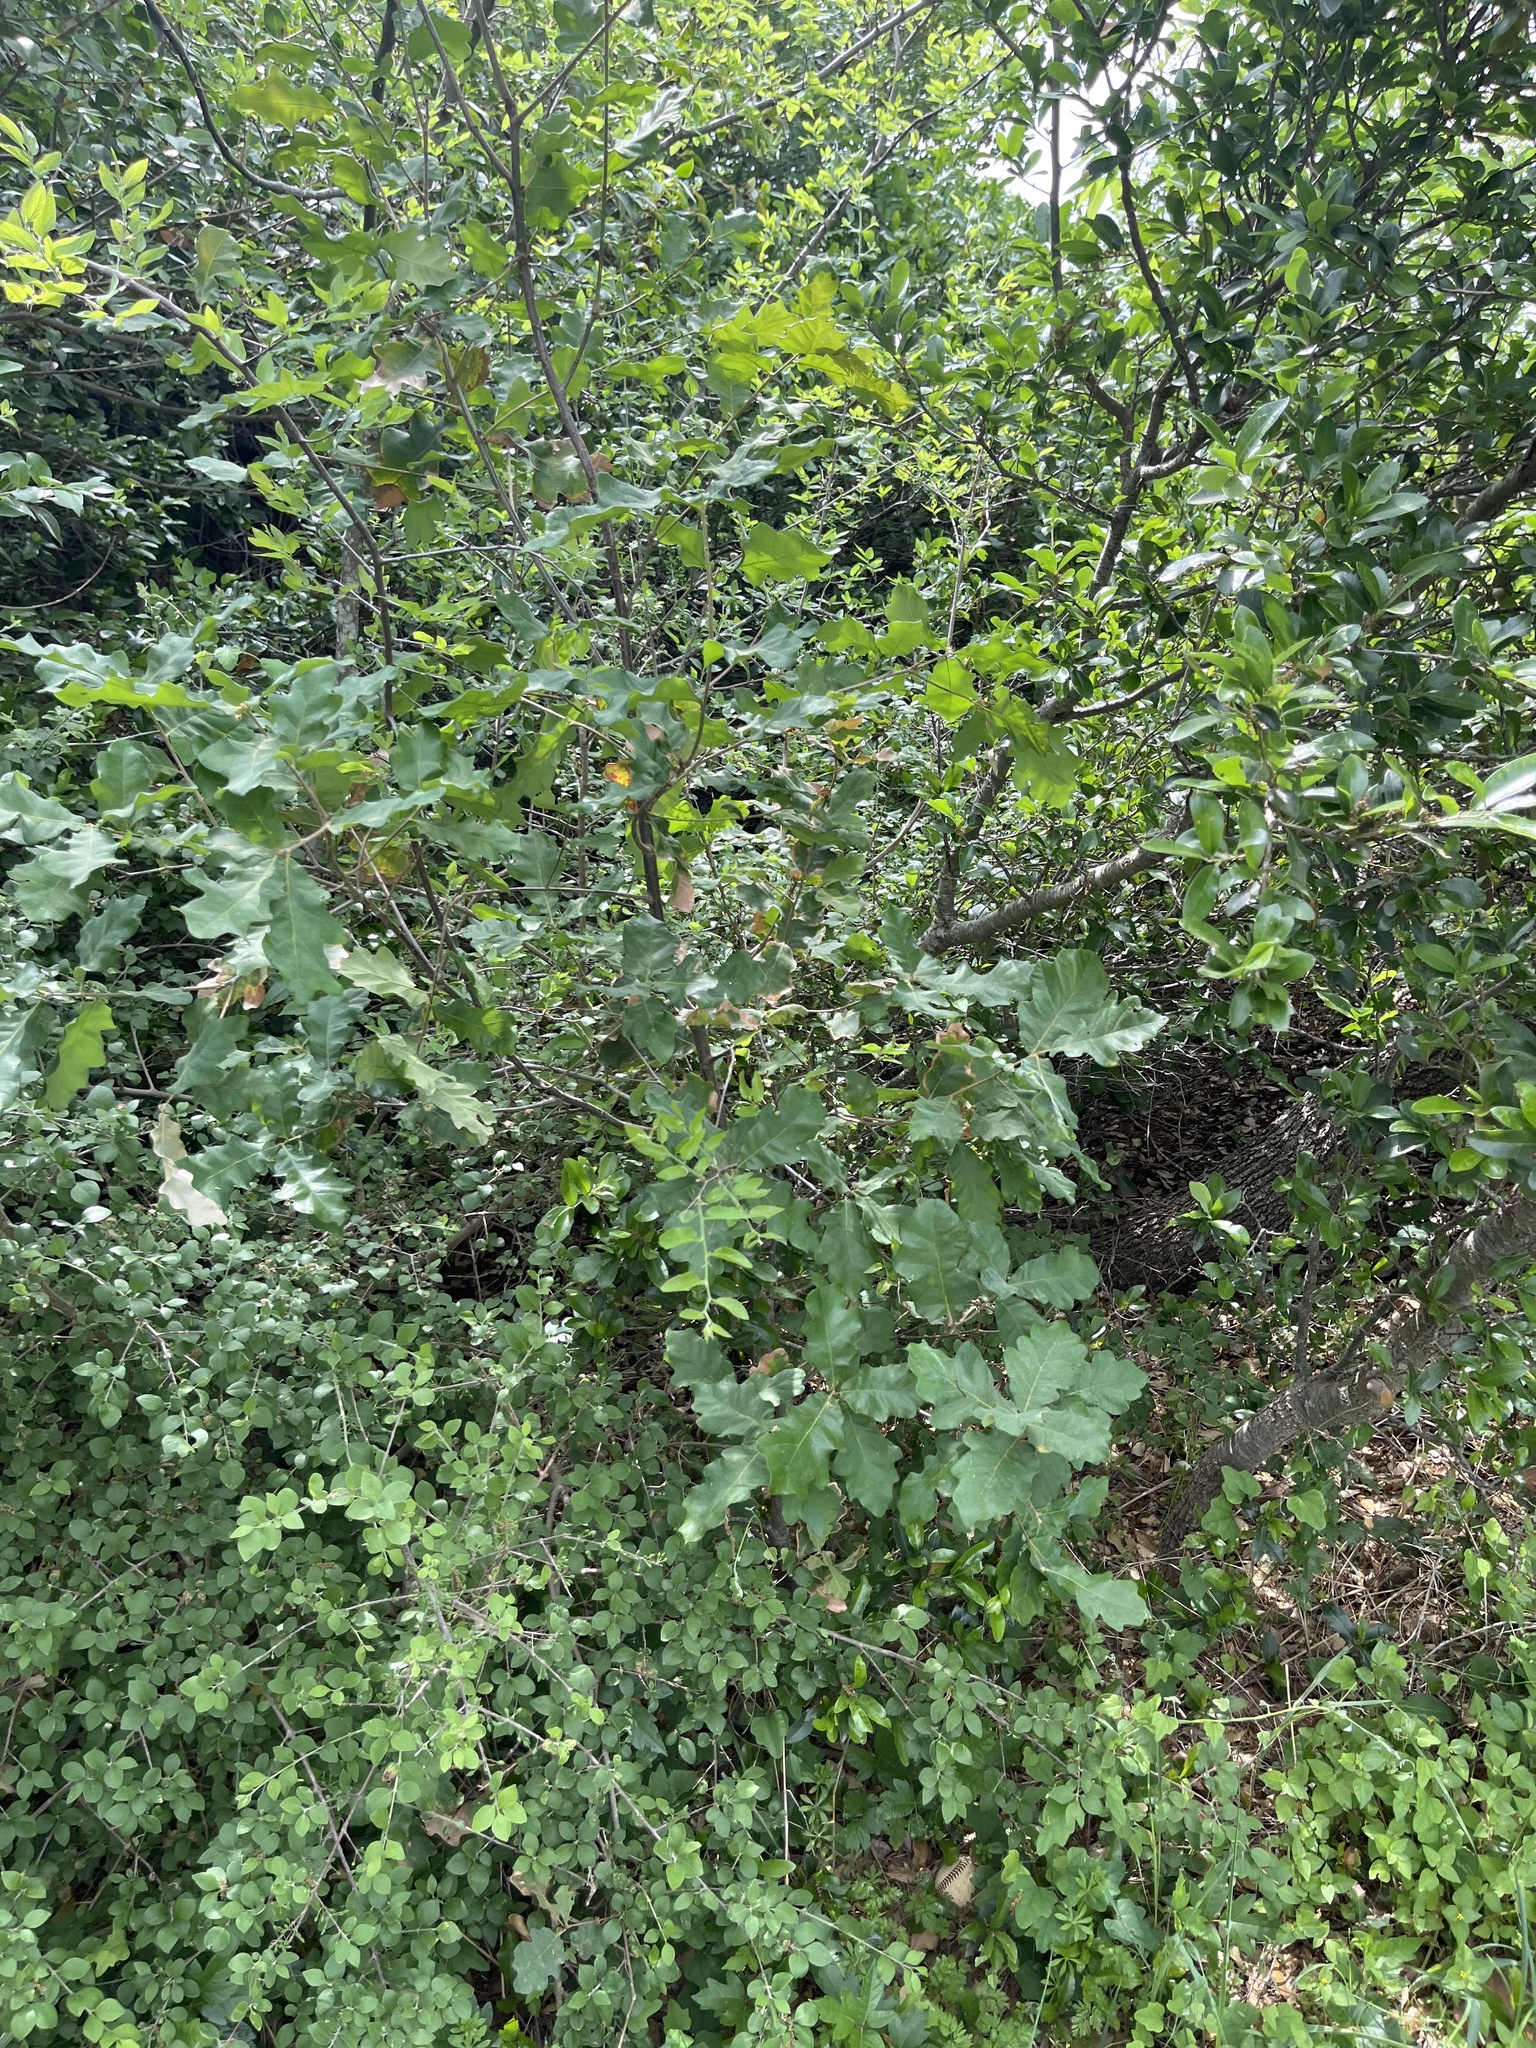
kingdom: Plantae
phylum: Tracheophyta
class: Magnoliopsida
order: Fagales
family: Fagaceae
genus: Quercus
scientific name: Quercus laceyi
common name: Lacey oak
